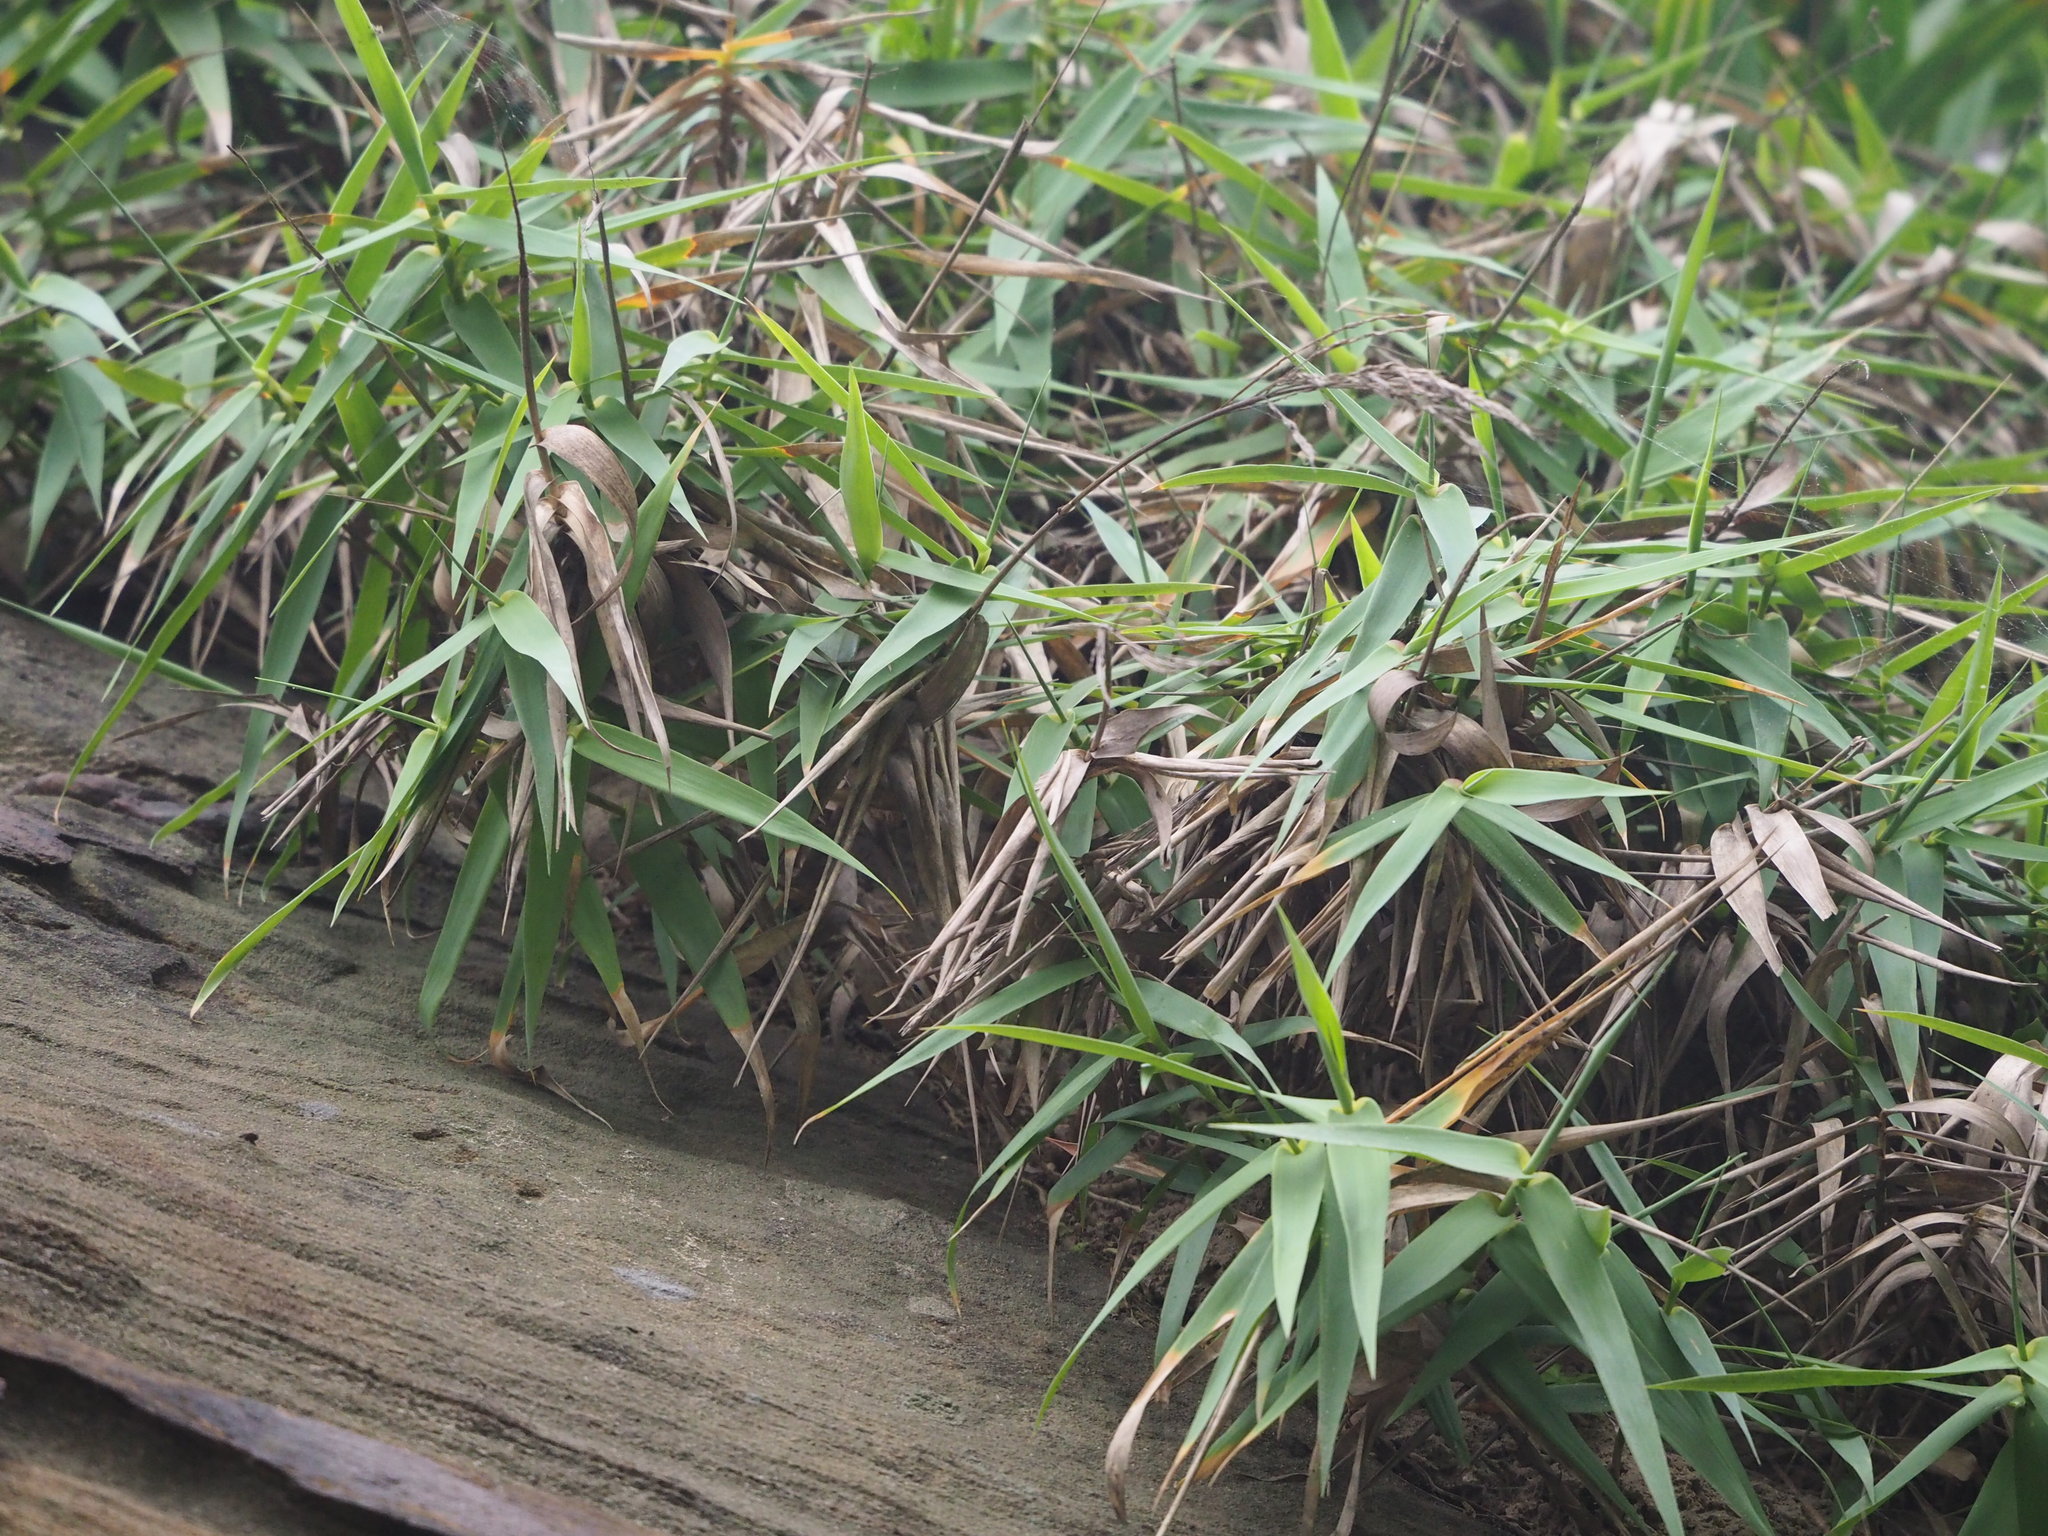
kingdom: Plantae
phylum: Tracheophyta
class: Liliopsida
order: Poales
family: Poaceae
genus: Arundo
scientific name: Arundo formosana
